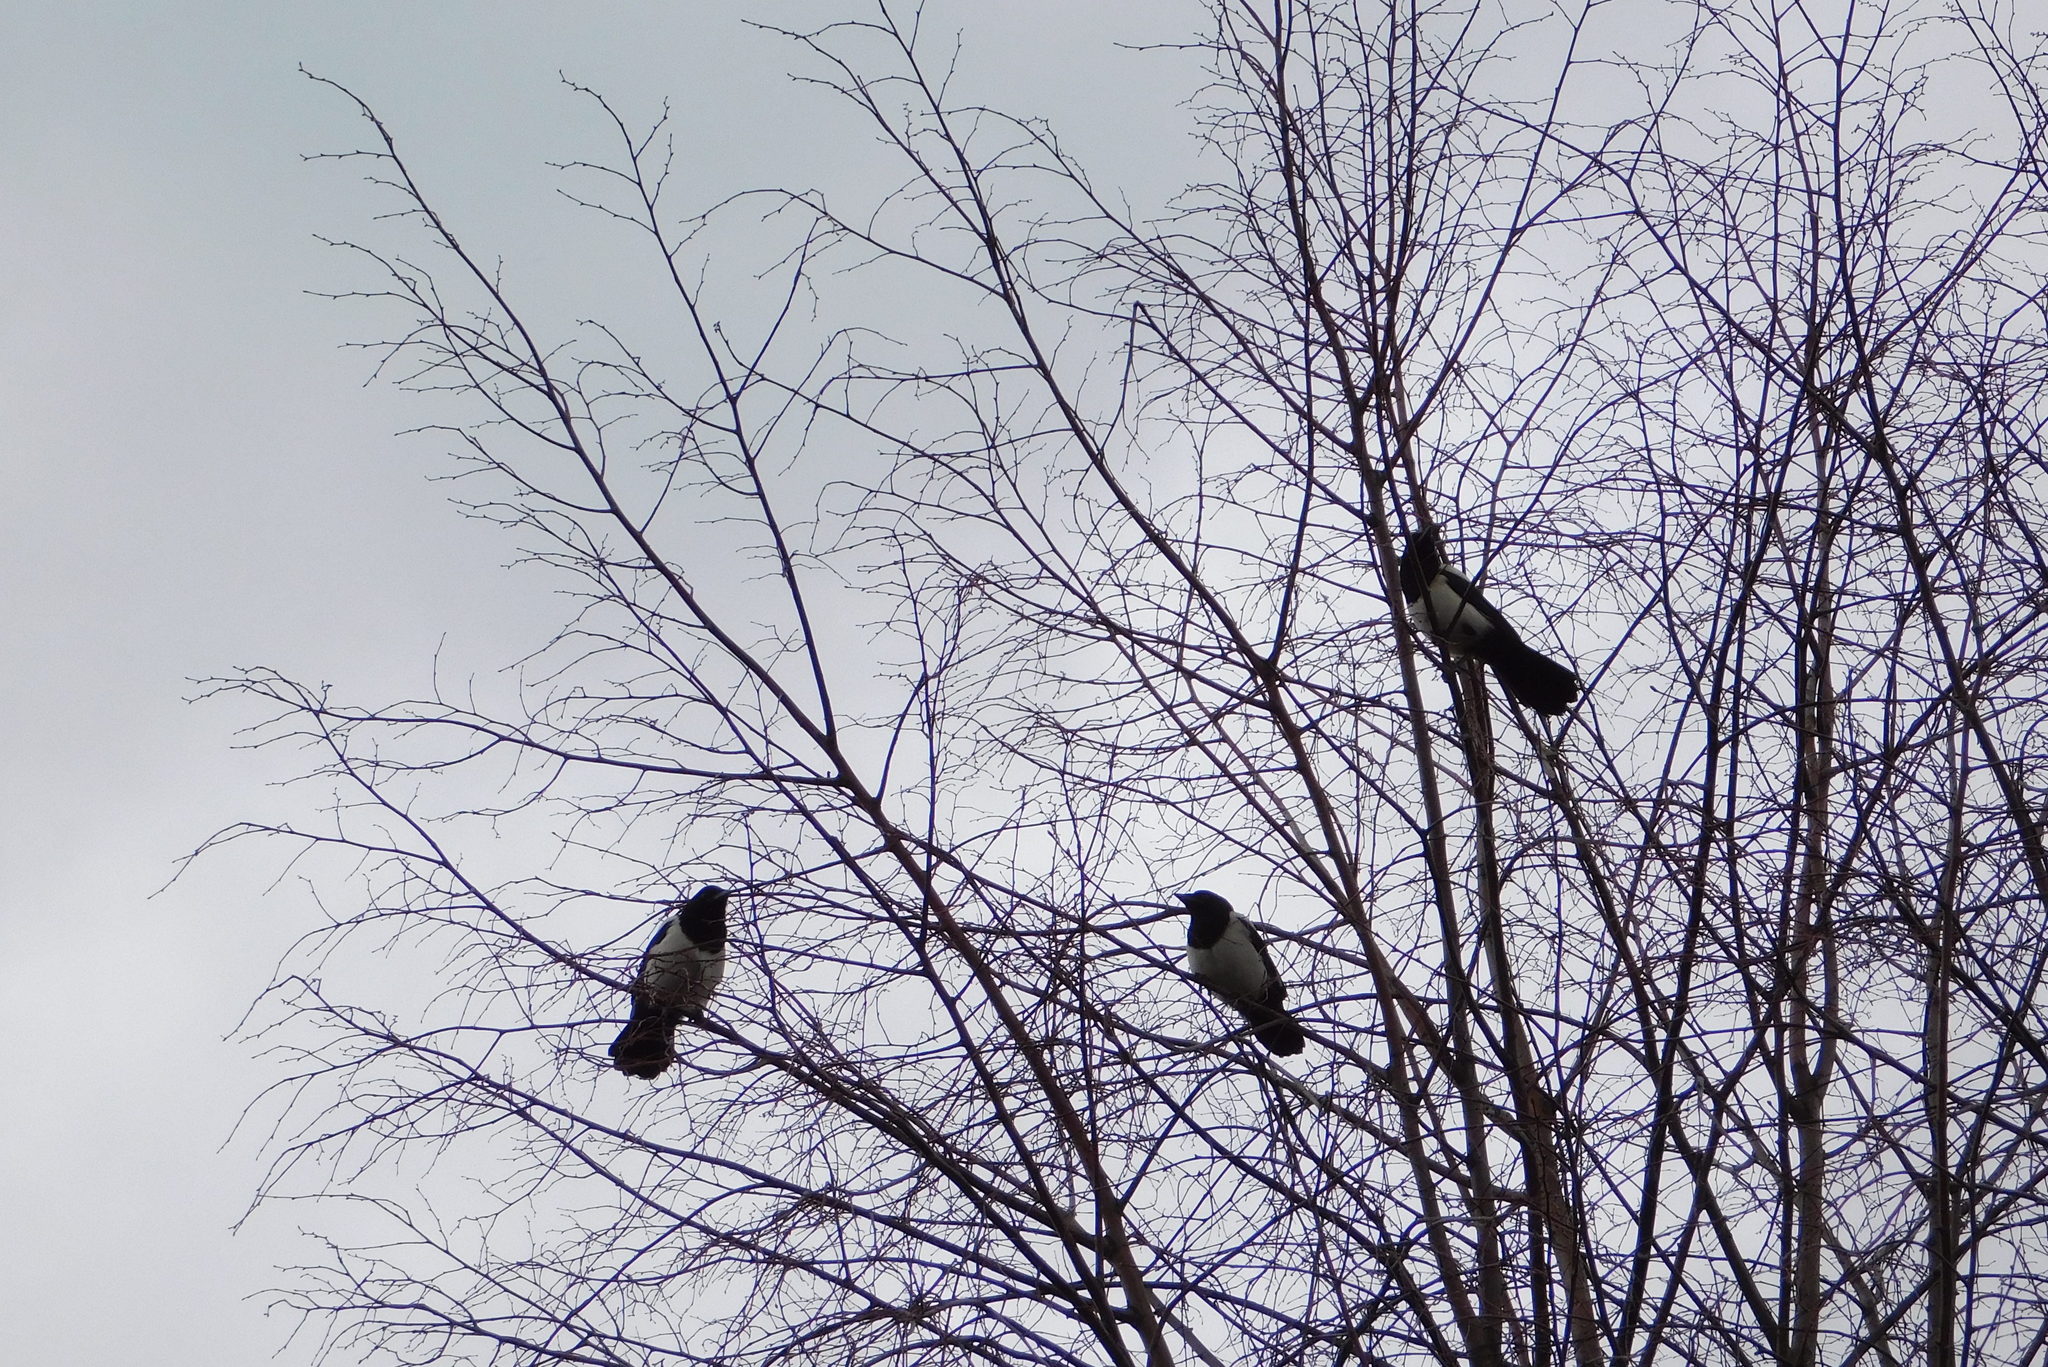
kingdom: Animalia
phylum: Chordata
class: Aves
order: Passeriformes
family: Corvidae
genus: Pica
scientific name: Pica pica
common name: Eurasian magpie
